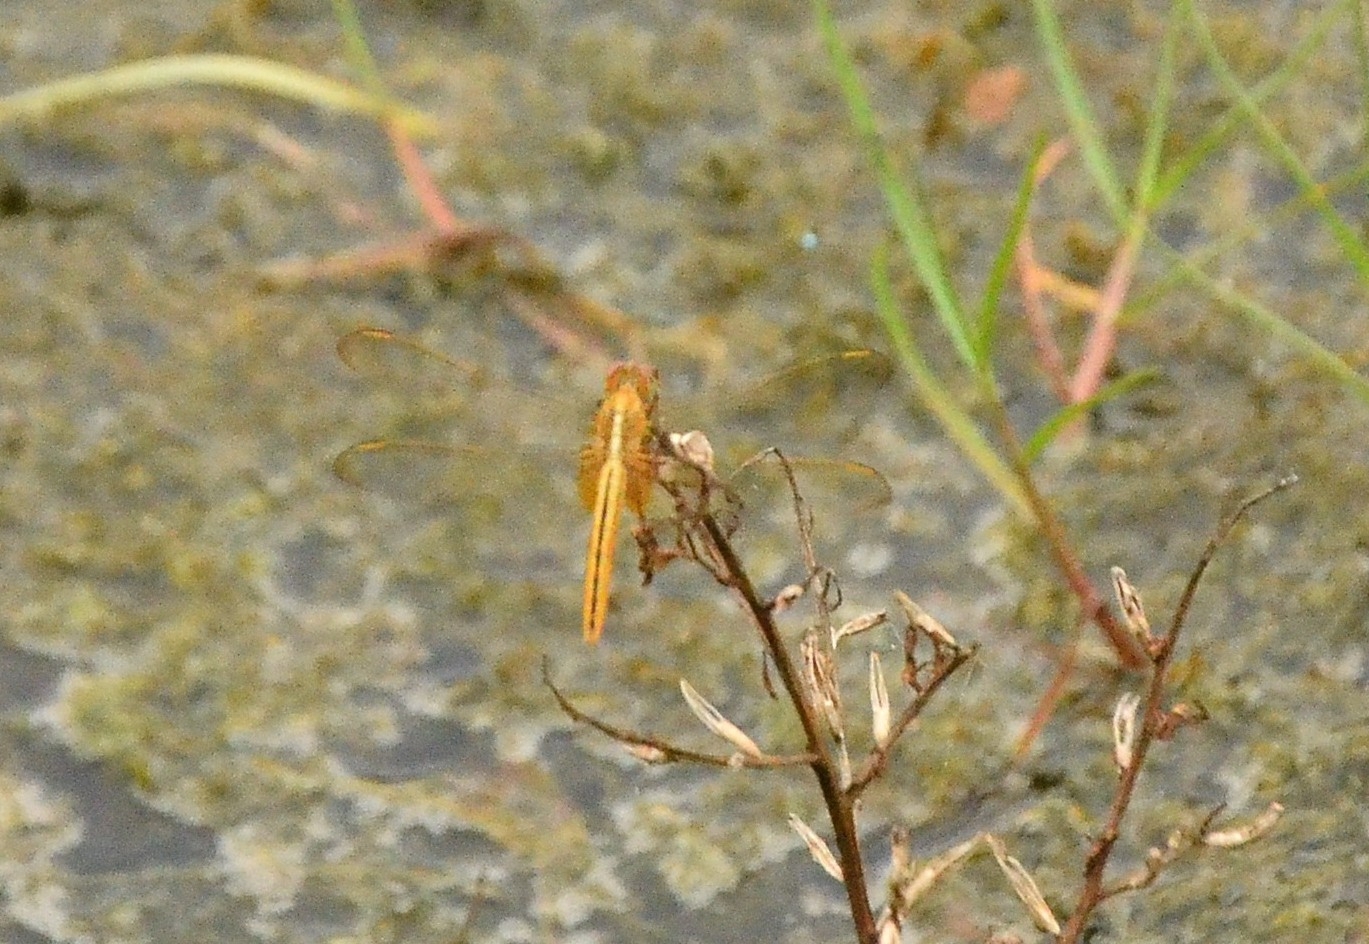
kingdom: Animalia
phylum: Arthropoda
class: Insecta
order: Odonata
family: Libellulidae
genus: Crocothemis
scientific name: Crocothemis servilia
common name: Scarlet skimmer
